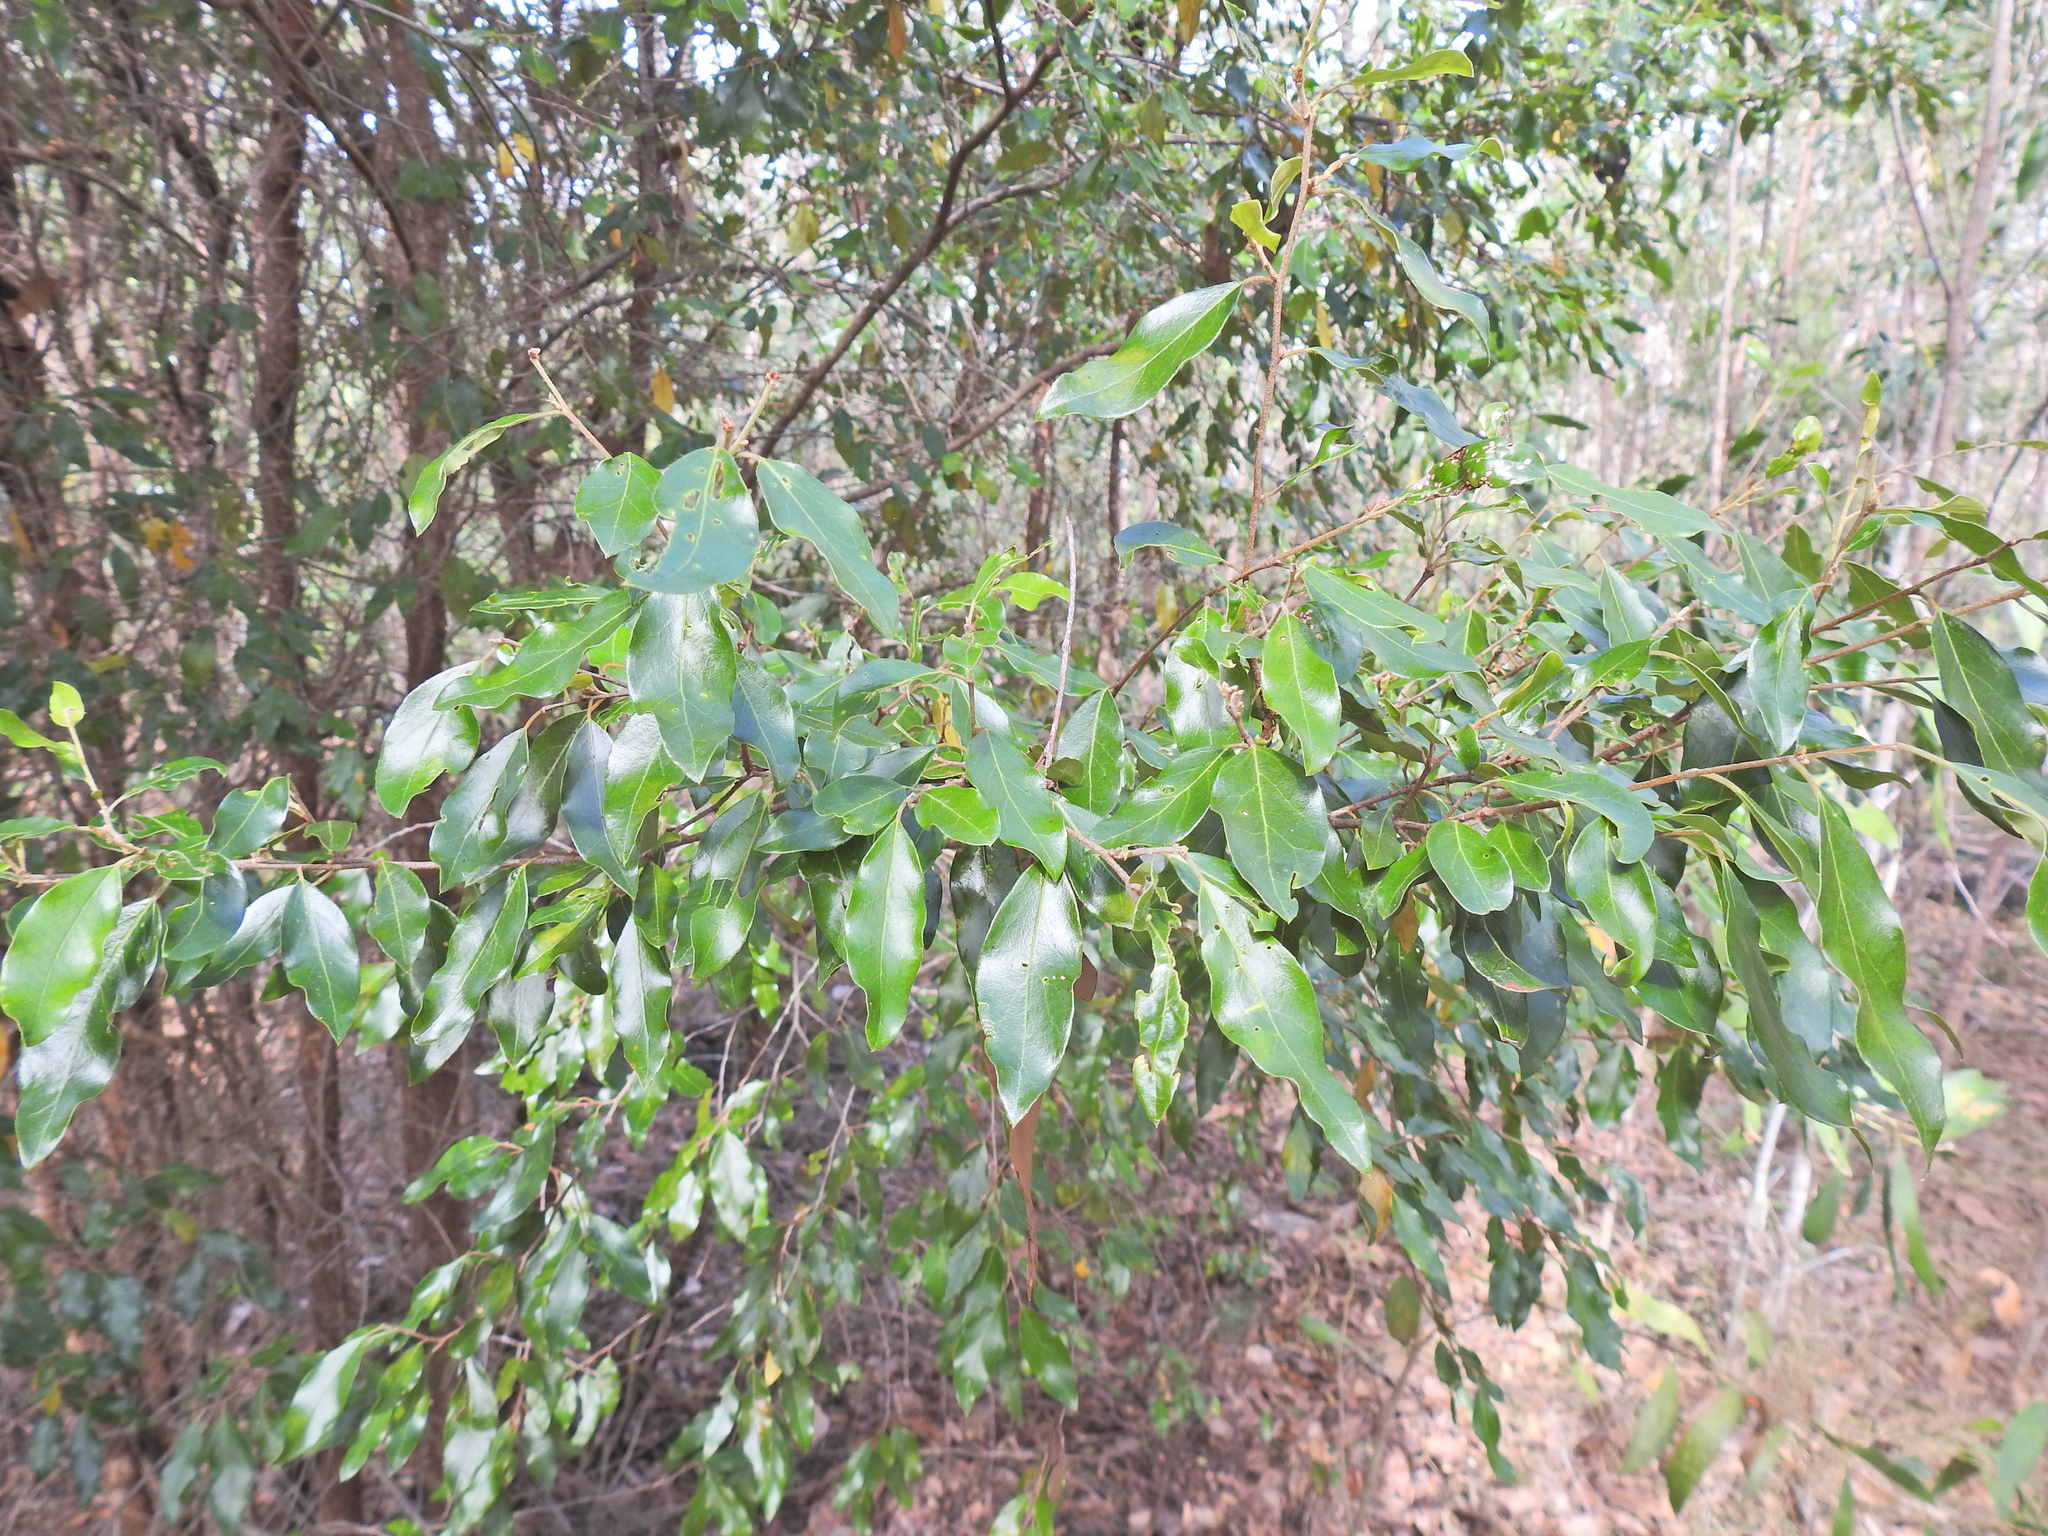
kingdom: Plantae
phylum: Tracheophyta
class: Magnoliopsida
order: Malpighiales
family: Picrodendraceae
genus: Petalostigma
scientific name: Petalostigma triloculare
